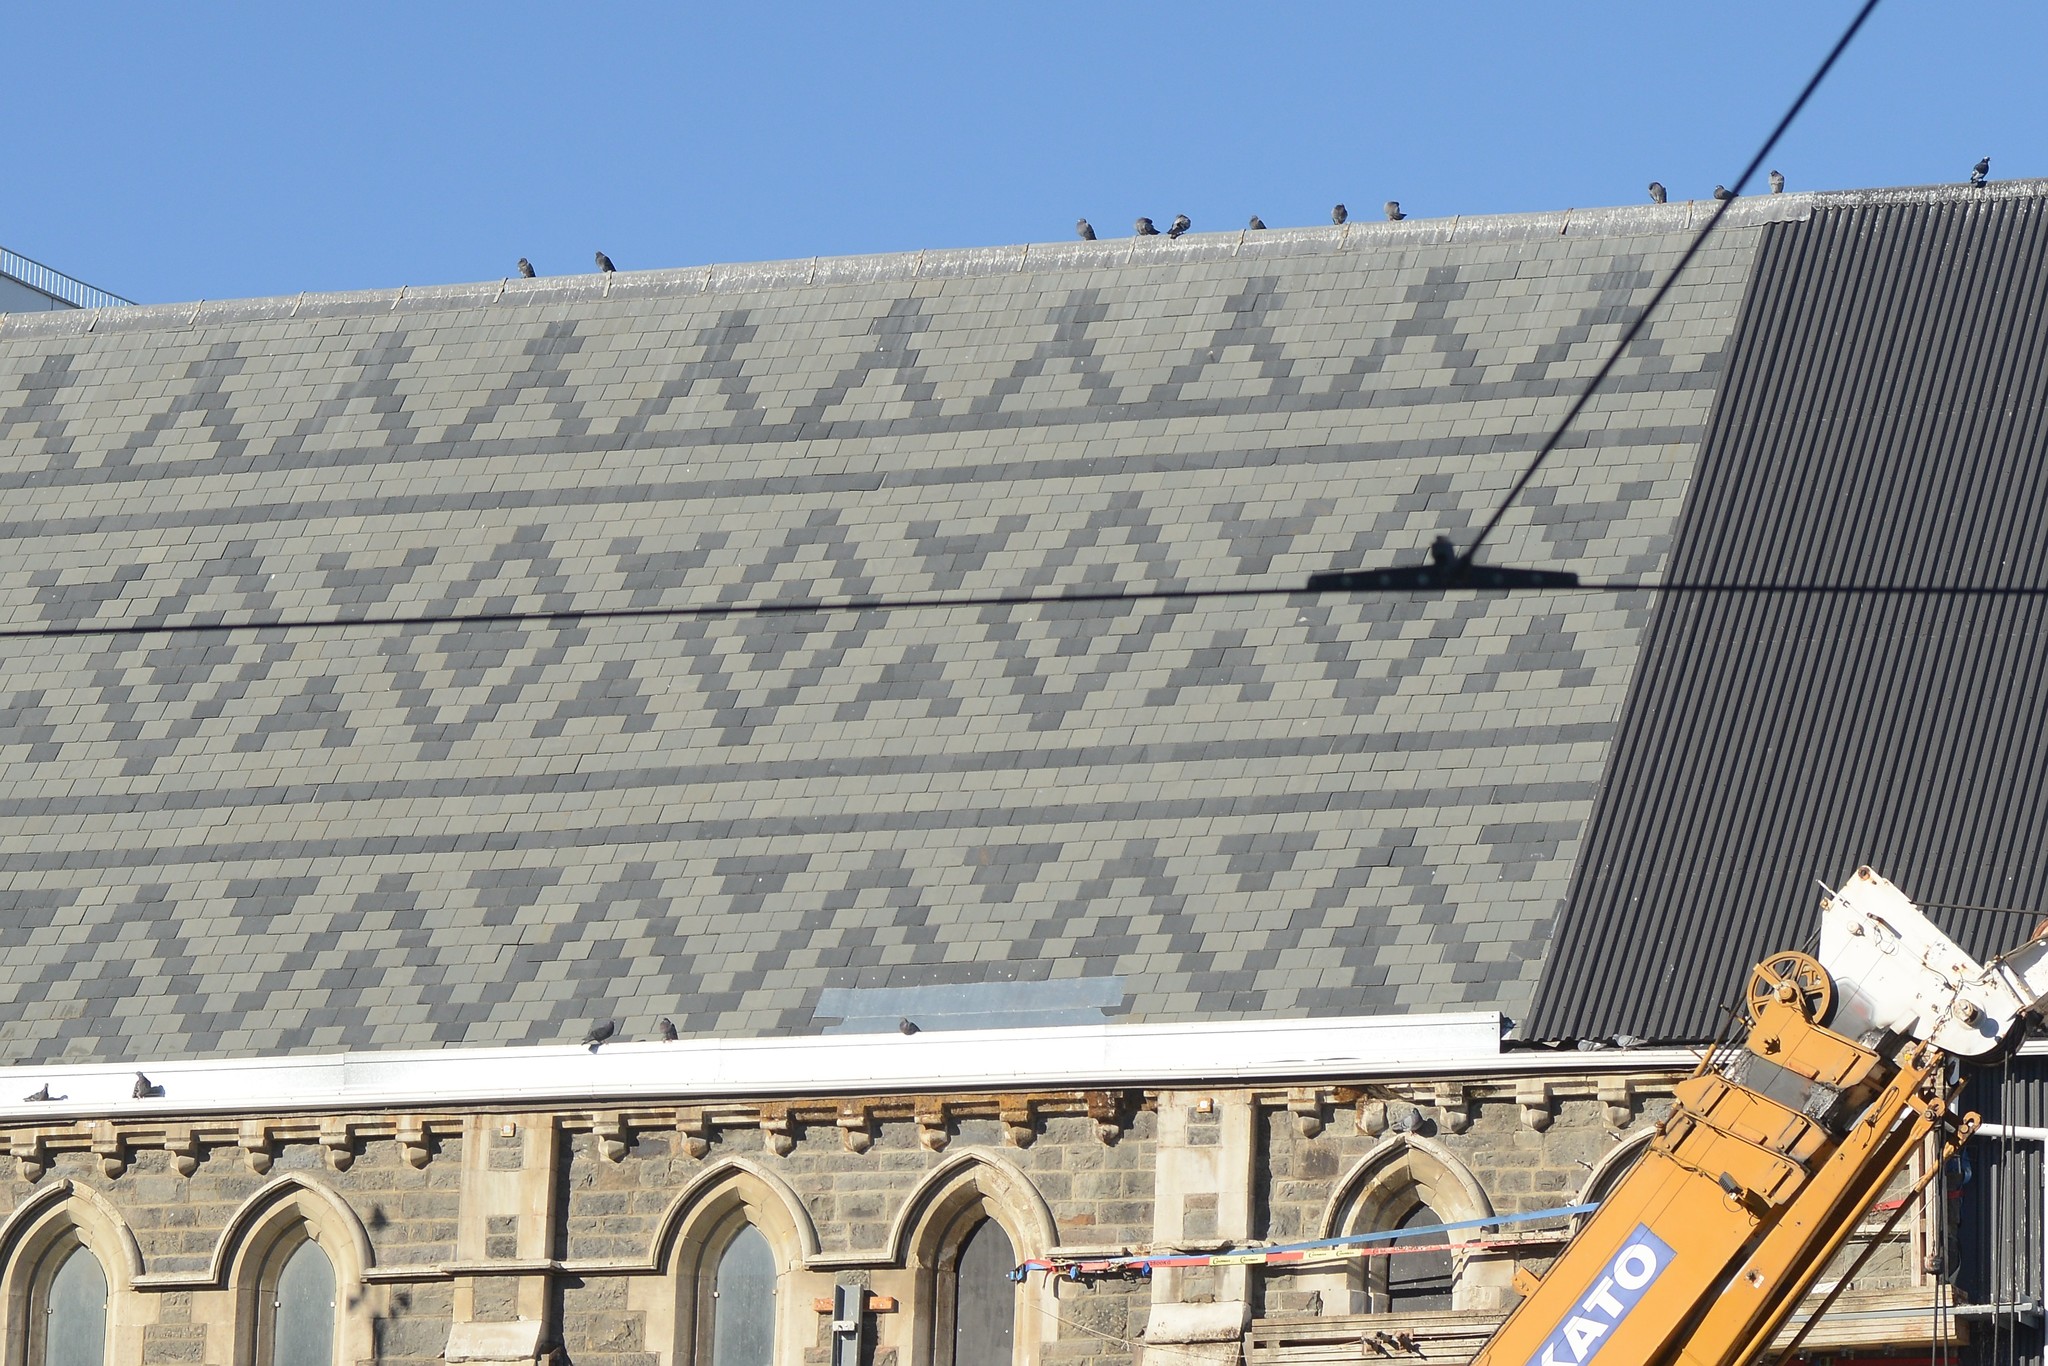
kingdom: Animalia
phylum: Chordata
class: Aves
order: Columbiformes
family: Columbidae
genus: Columba
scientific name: Columba livia
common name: Rock pigeon
